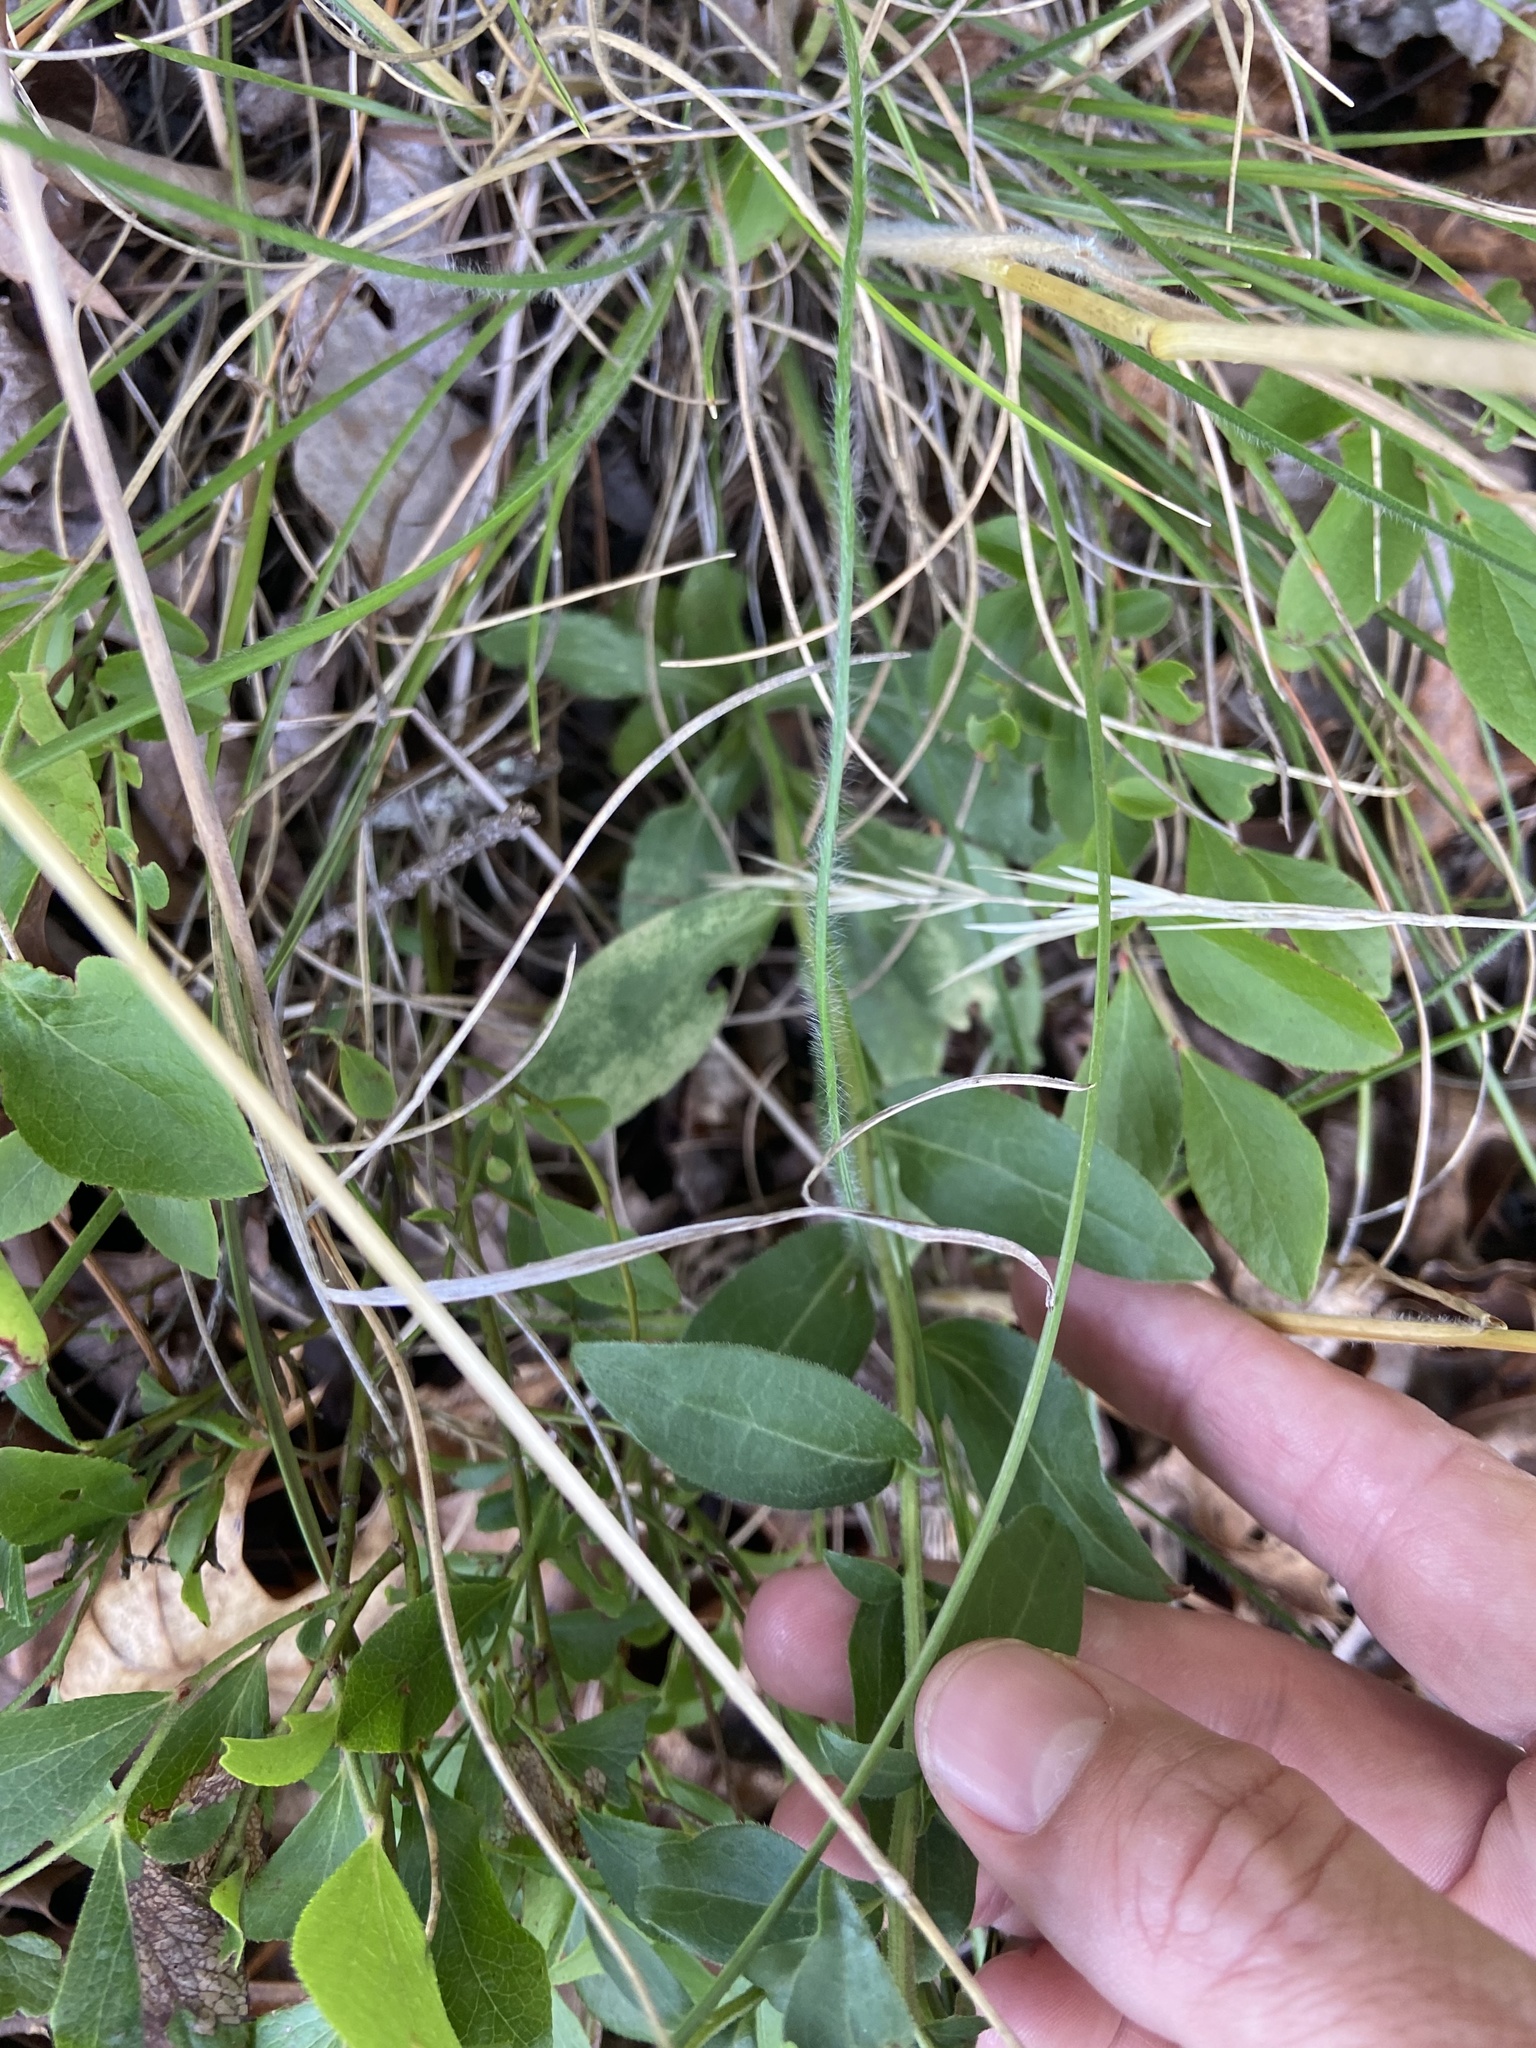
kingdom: Plantae
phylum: Tracheophyta
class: Magnoliopsida
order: Asterales
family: Asteraceae
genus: Sericocarpus
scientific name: Sericocarpus asteroides
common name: Toothed white-top aster
